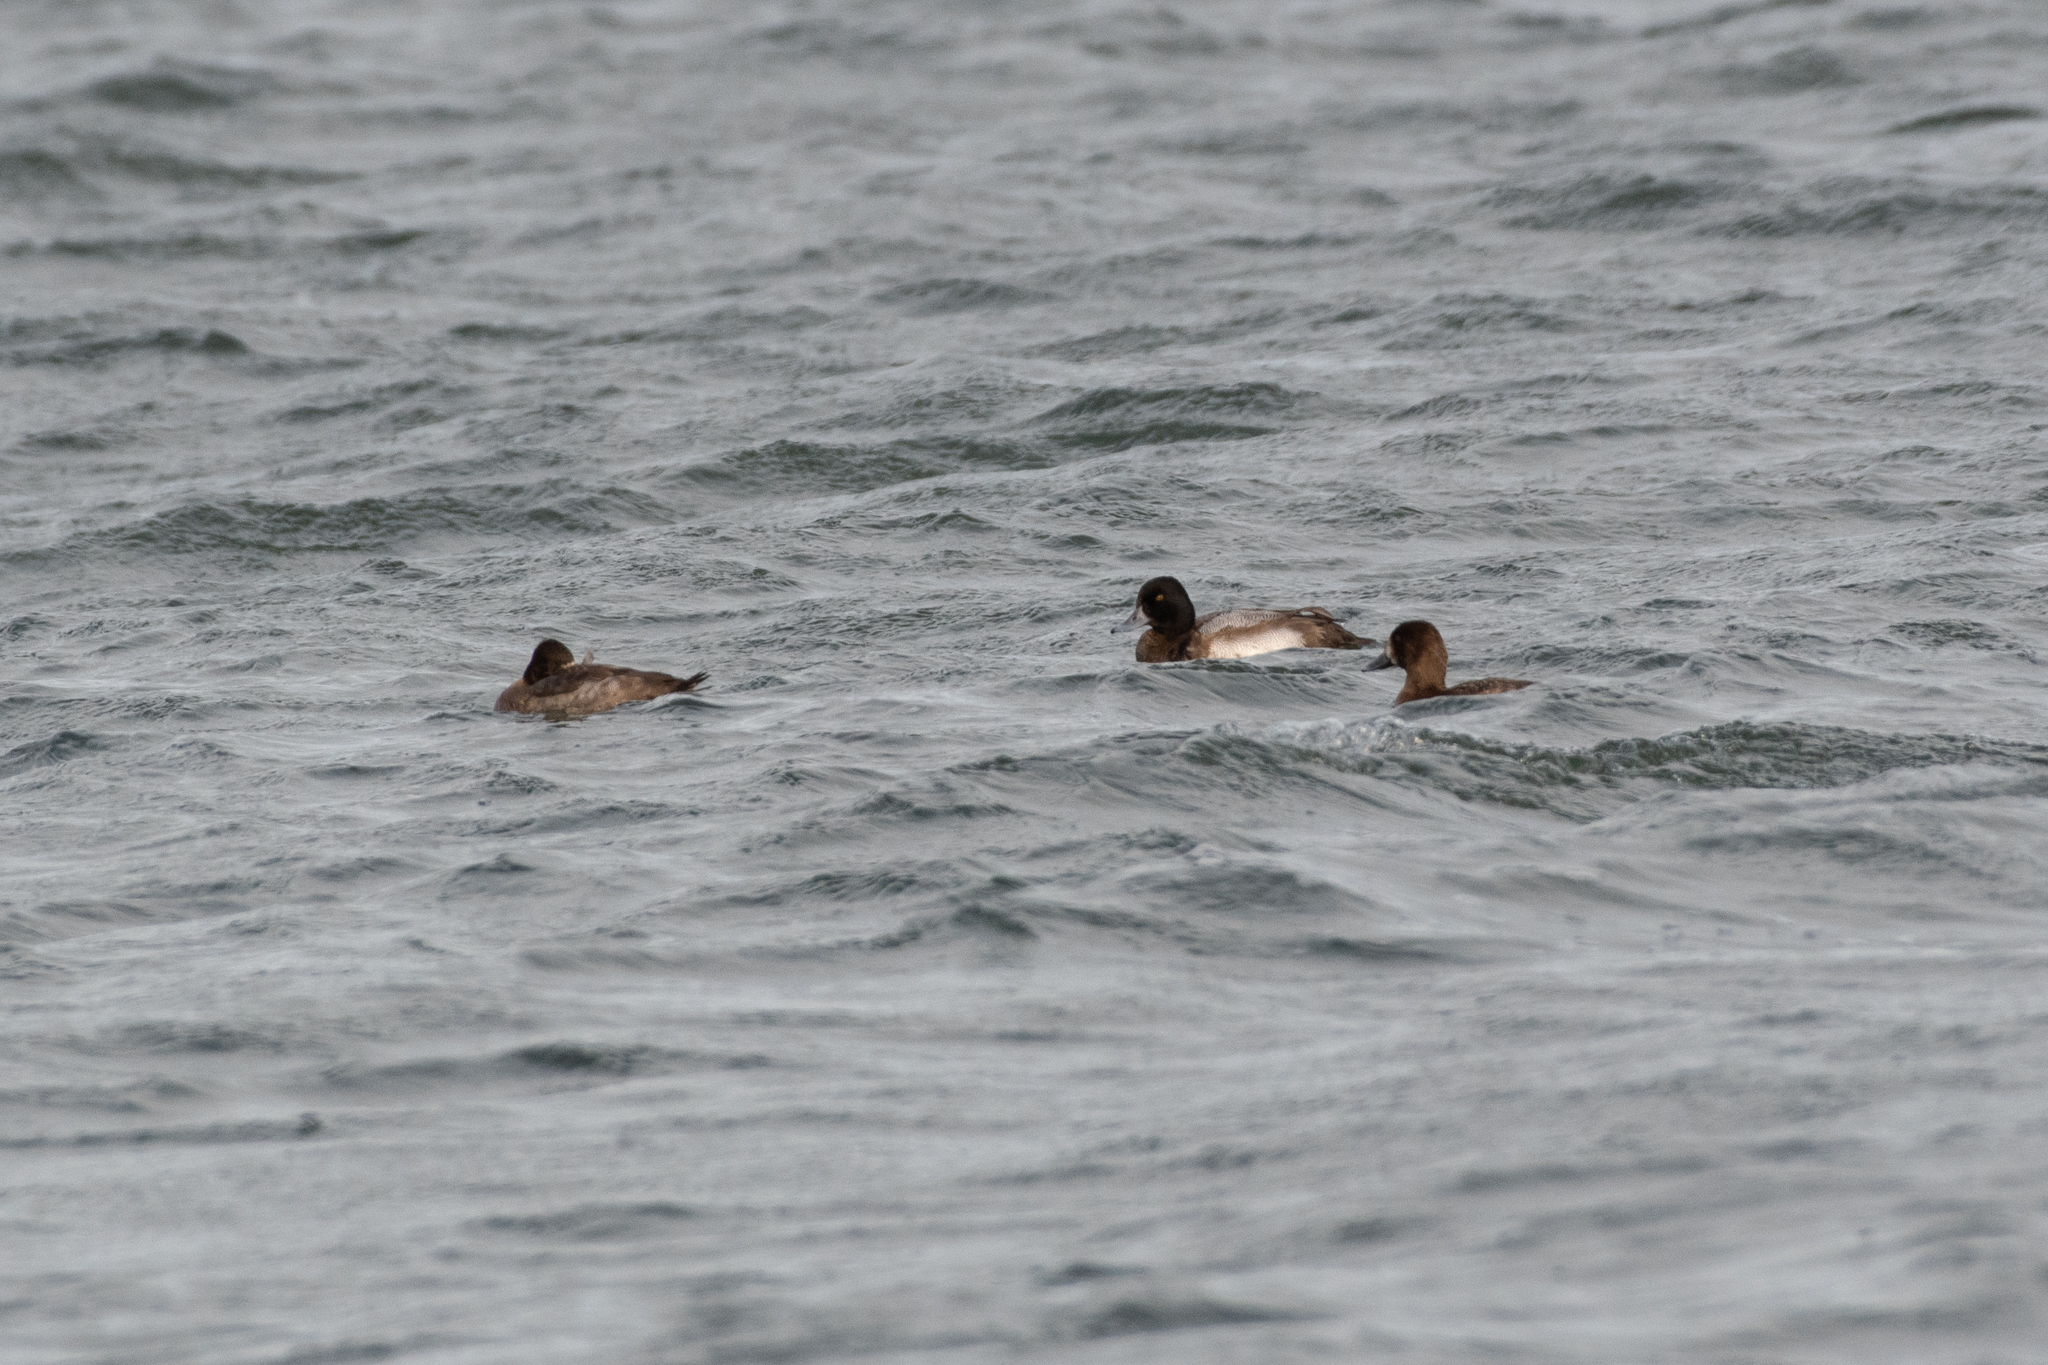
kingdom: Animalia
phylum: Chordata
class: Aves
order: Anseriformes
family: Anatidae
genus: Aythya
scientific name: Aythya affinis
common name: Lesser scaup
